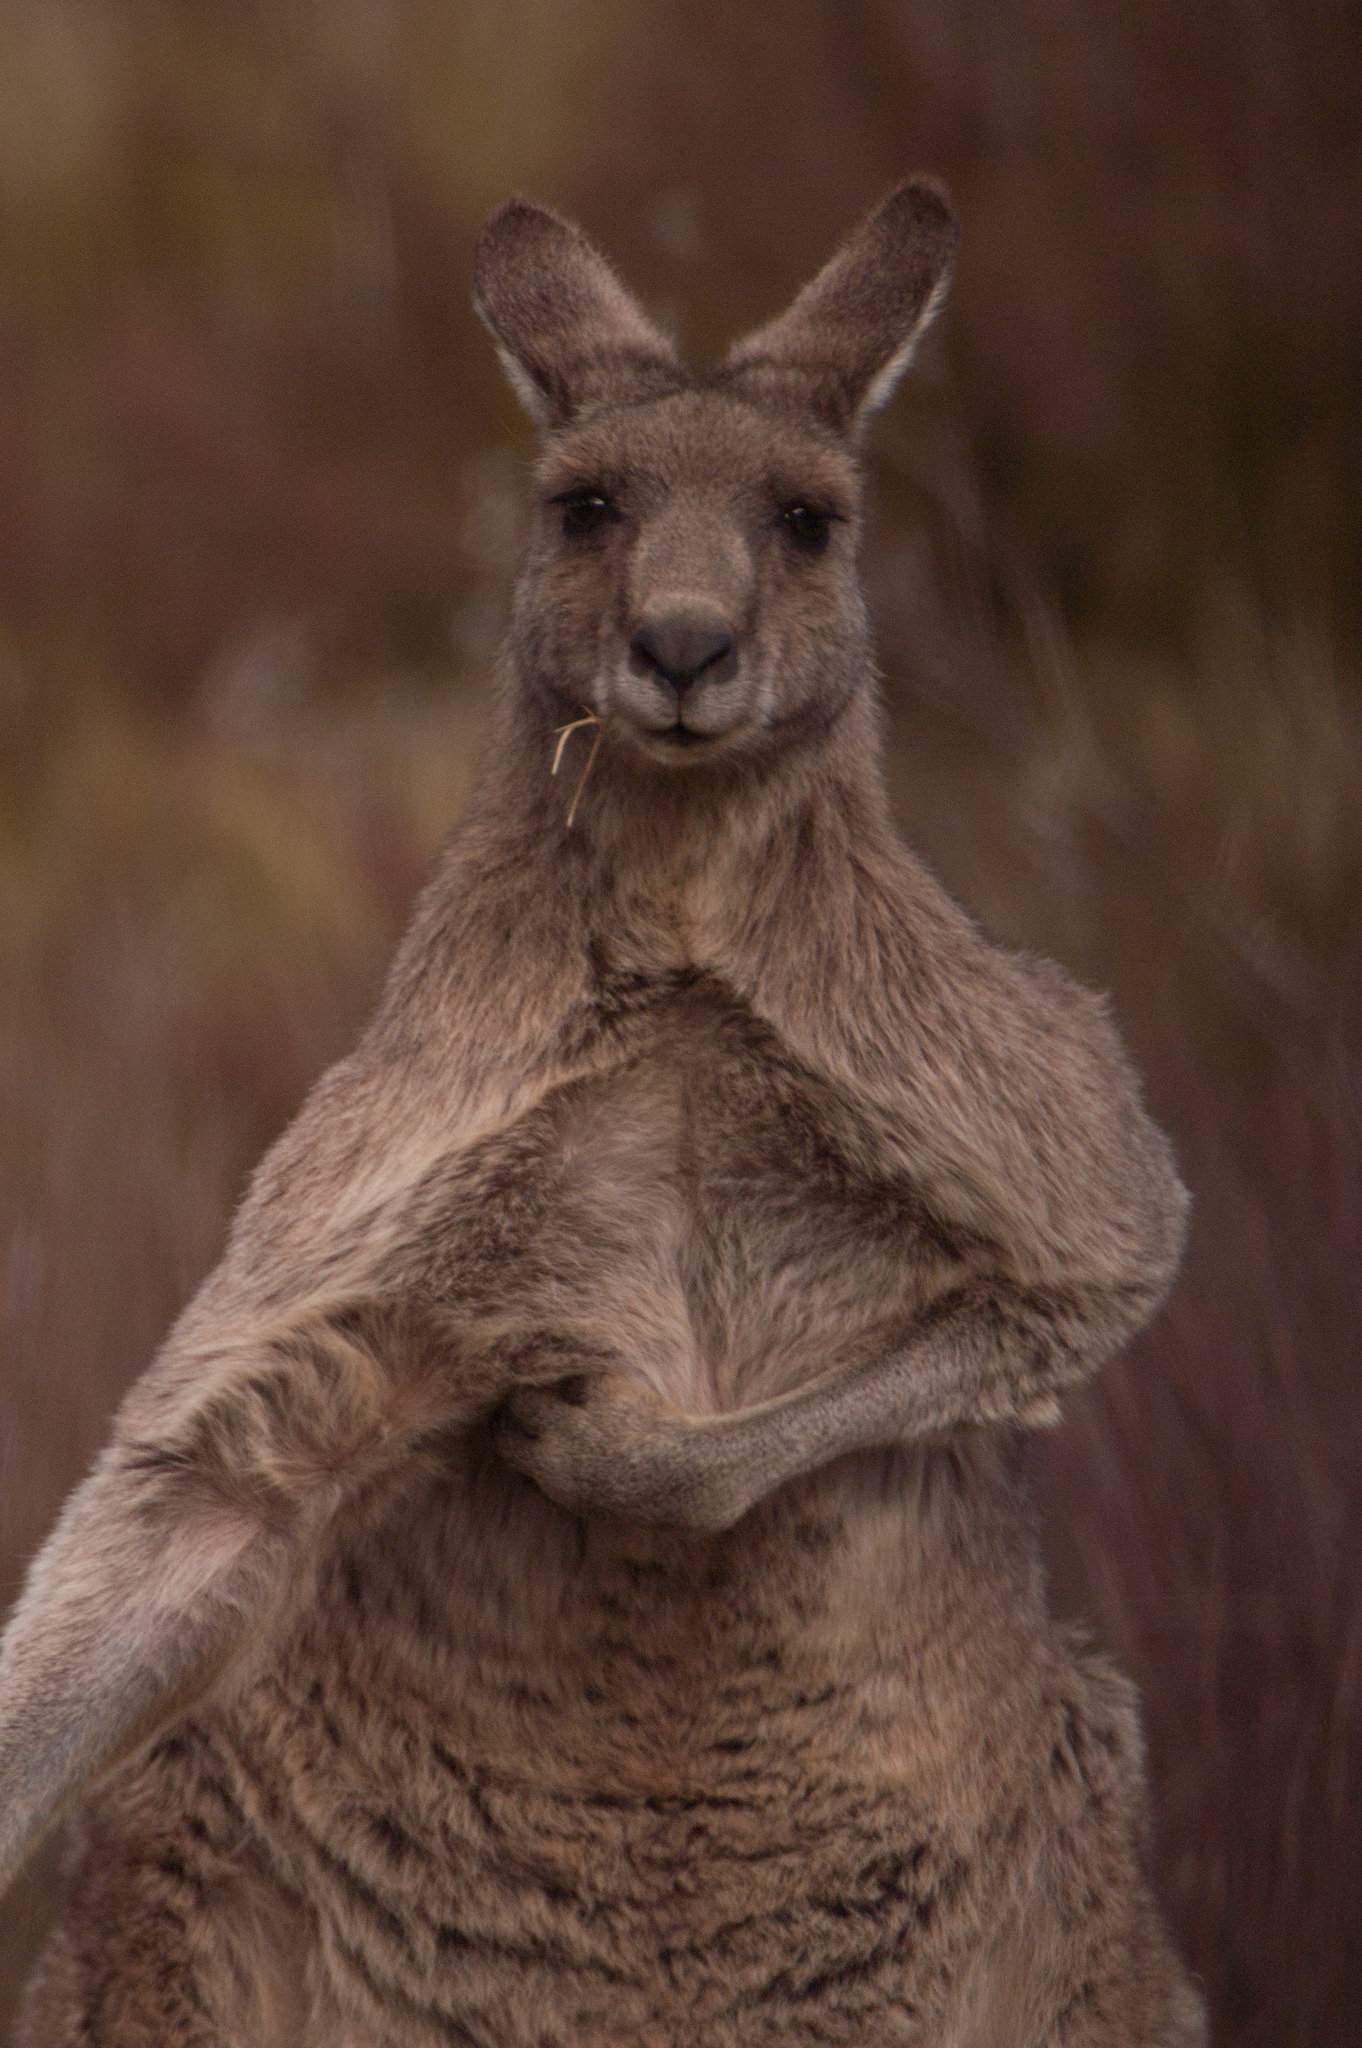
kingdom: Animalia
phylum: Chordata
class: Mammalia
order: Diprotodontia
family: Macropodidae
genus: Macropus
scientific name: Macropus giganteus
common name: Eastern grey kangaroo
